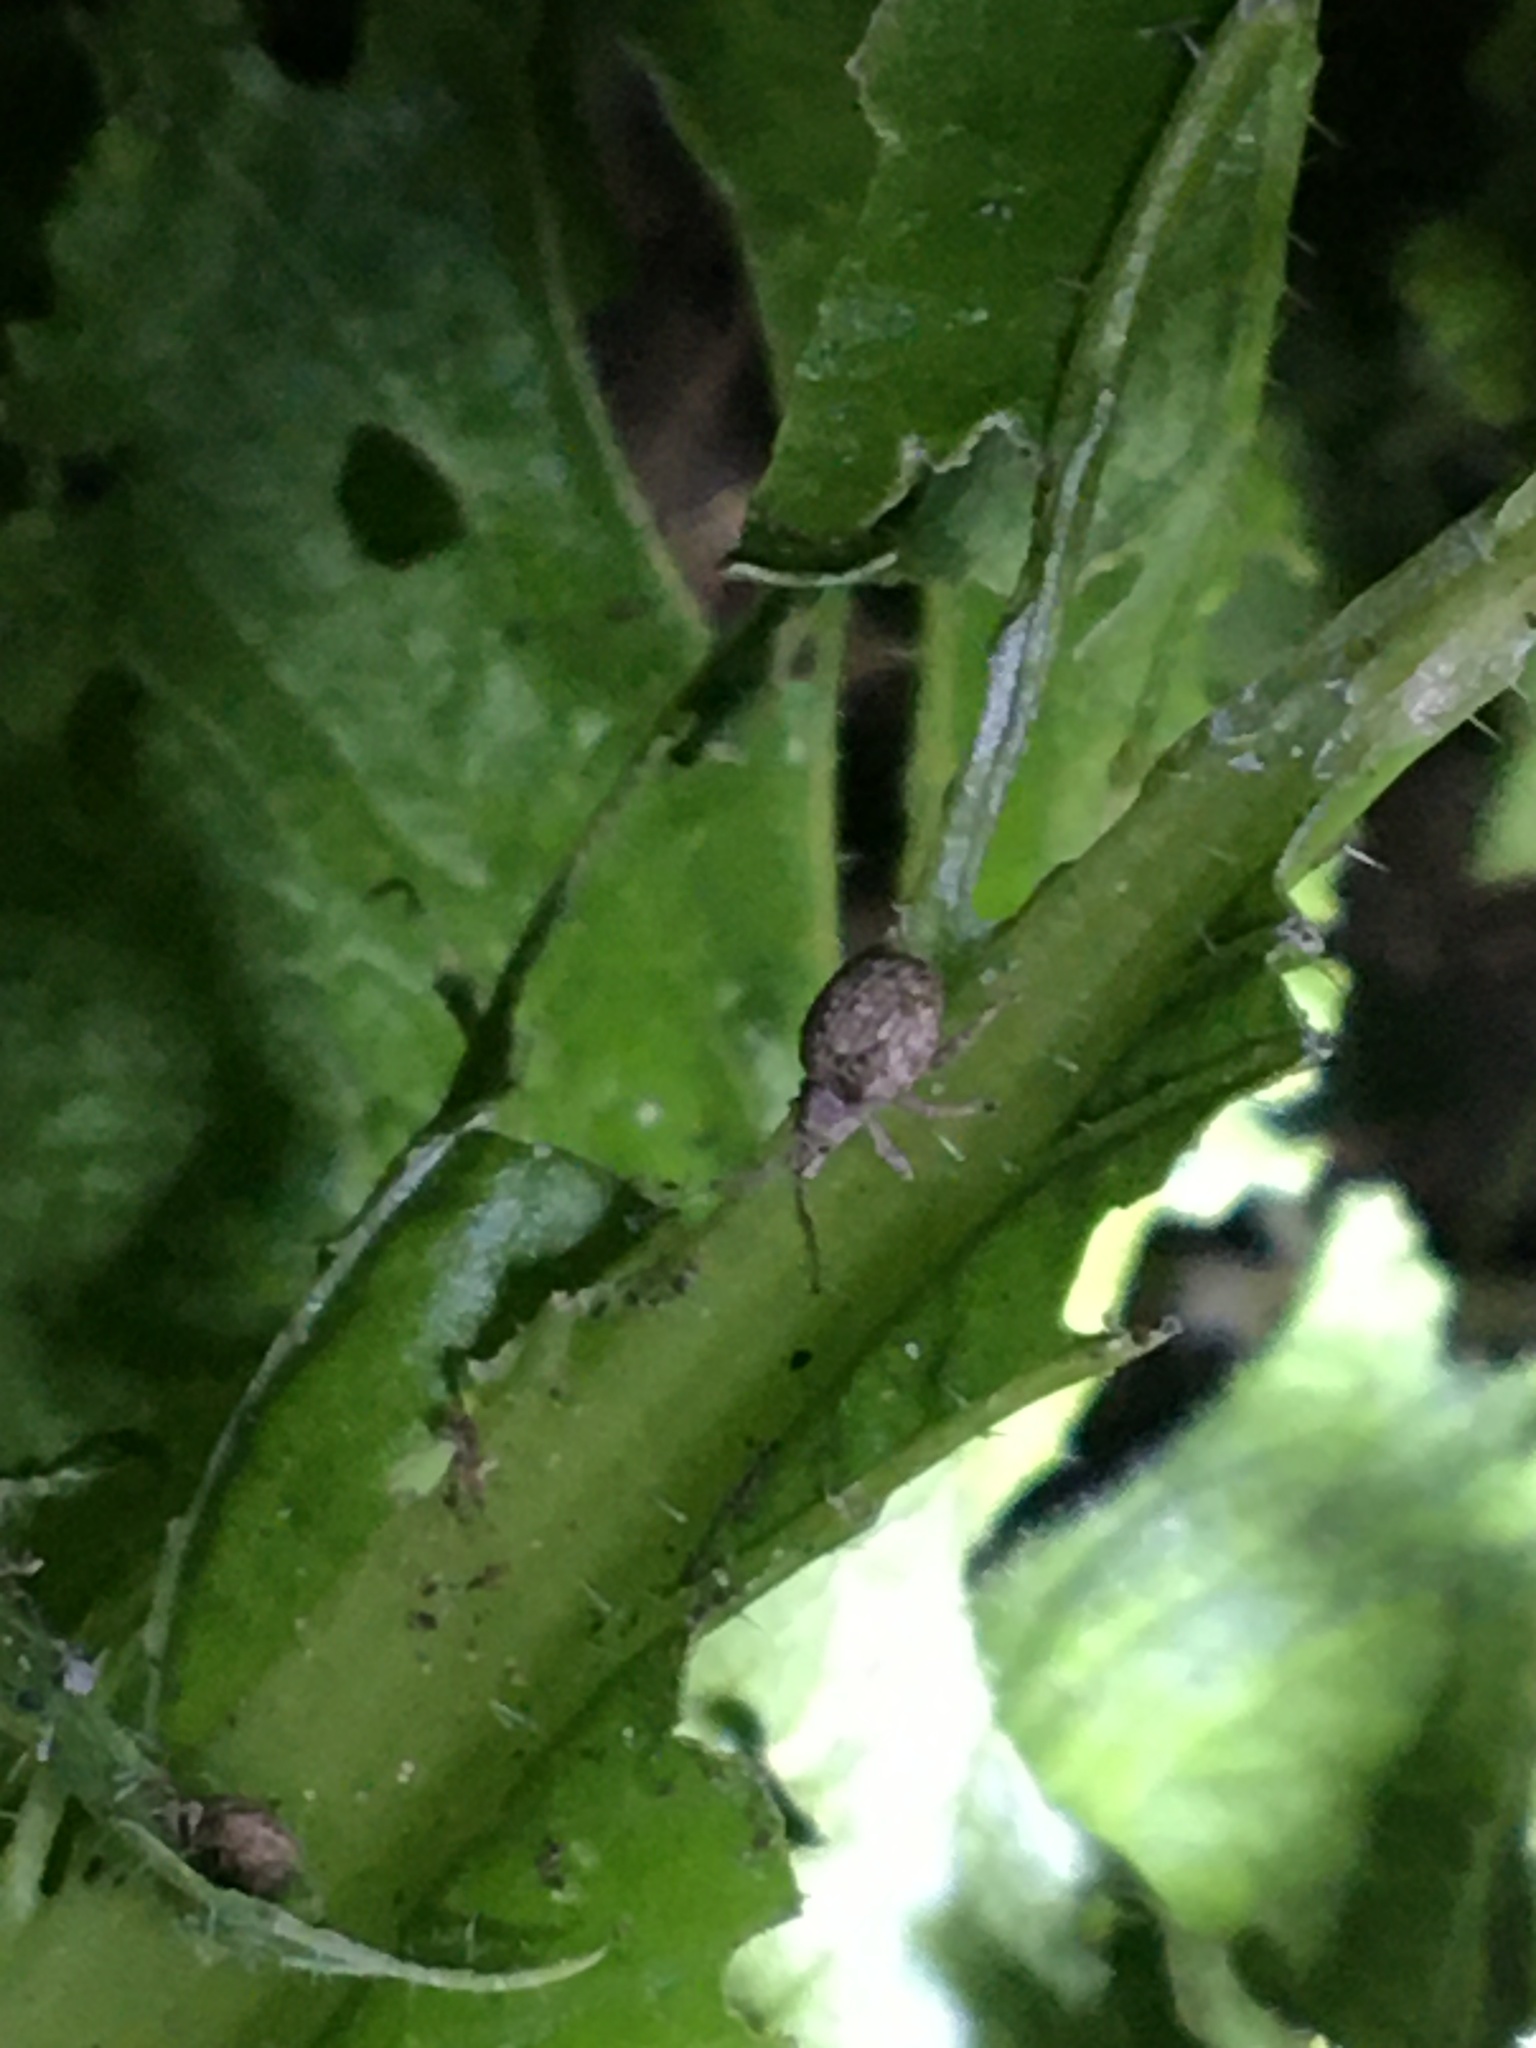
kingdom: Animalia
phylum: Arthropoda
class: Insecta
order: Coleoptera
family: Curculionidae
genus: Ellimenistes
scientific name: Ellimenistes laesicollis
